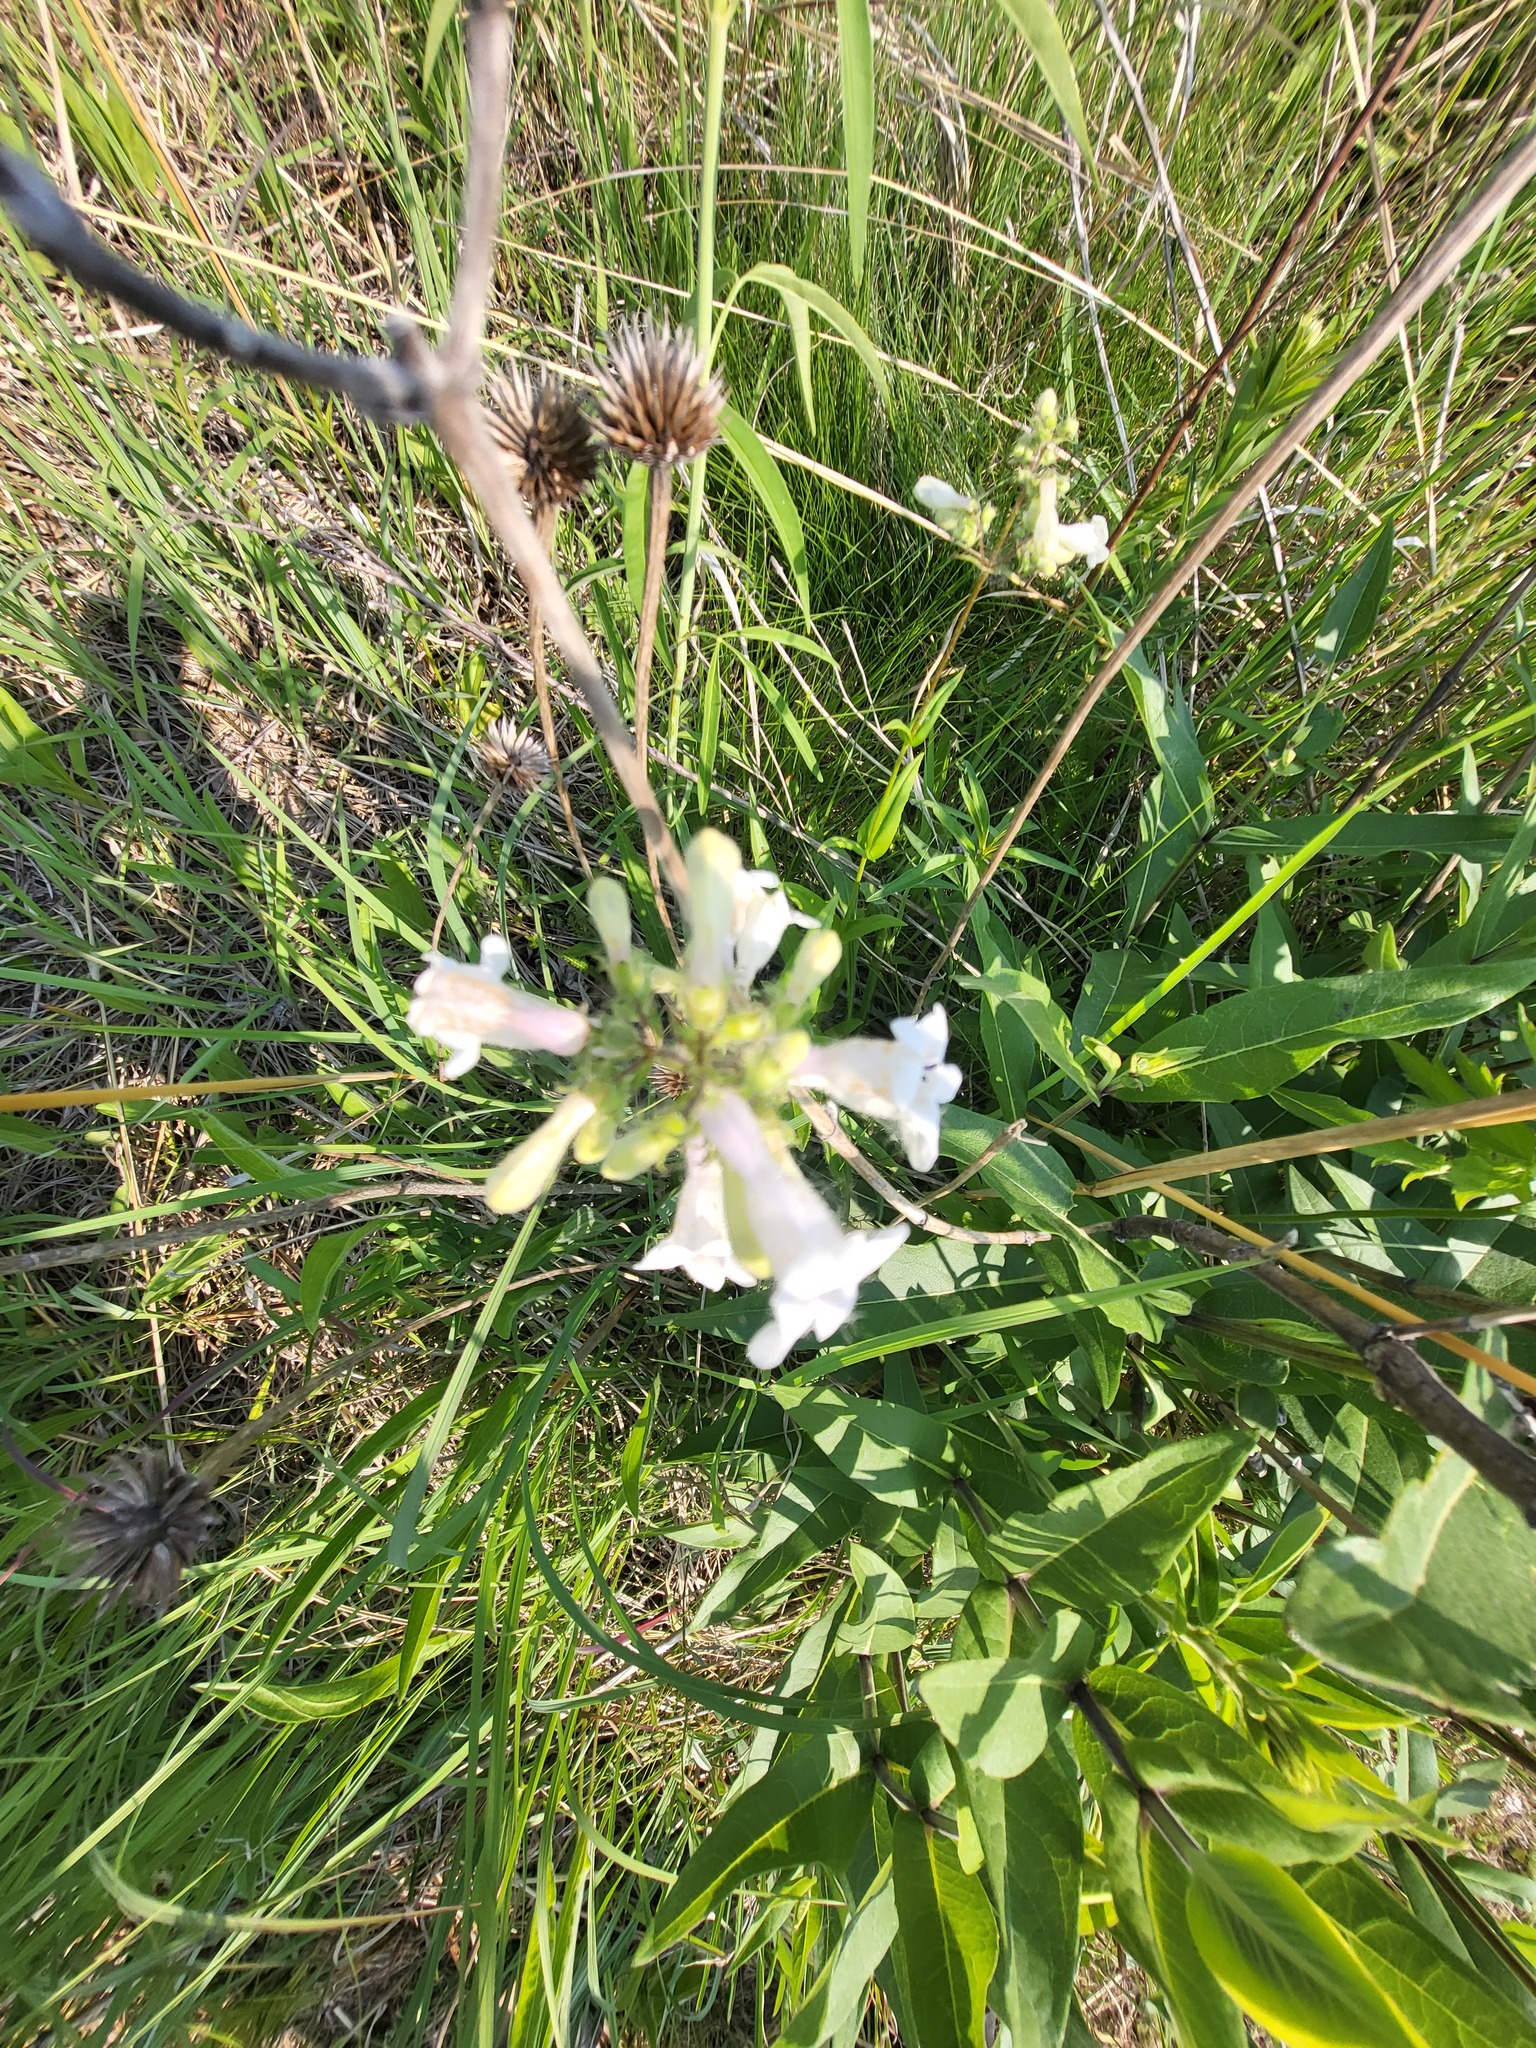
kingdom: Plantae
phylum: Tracheophyta
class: Magnoliopsida
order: Lamiales
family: Plantaginaceae
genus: Penstemon
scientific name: Penstemon digitalis
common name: Foxglove beardtongue
